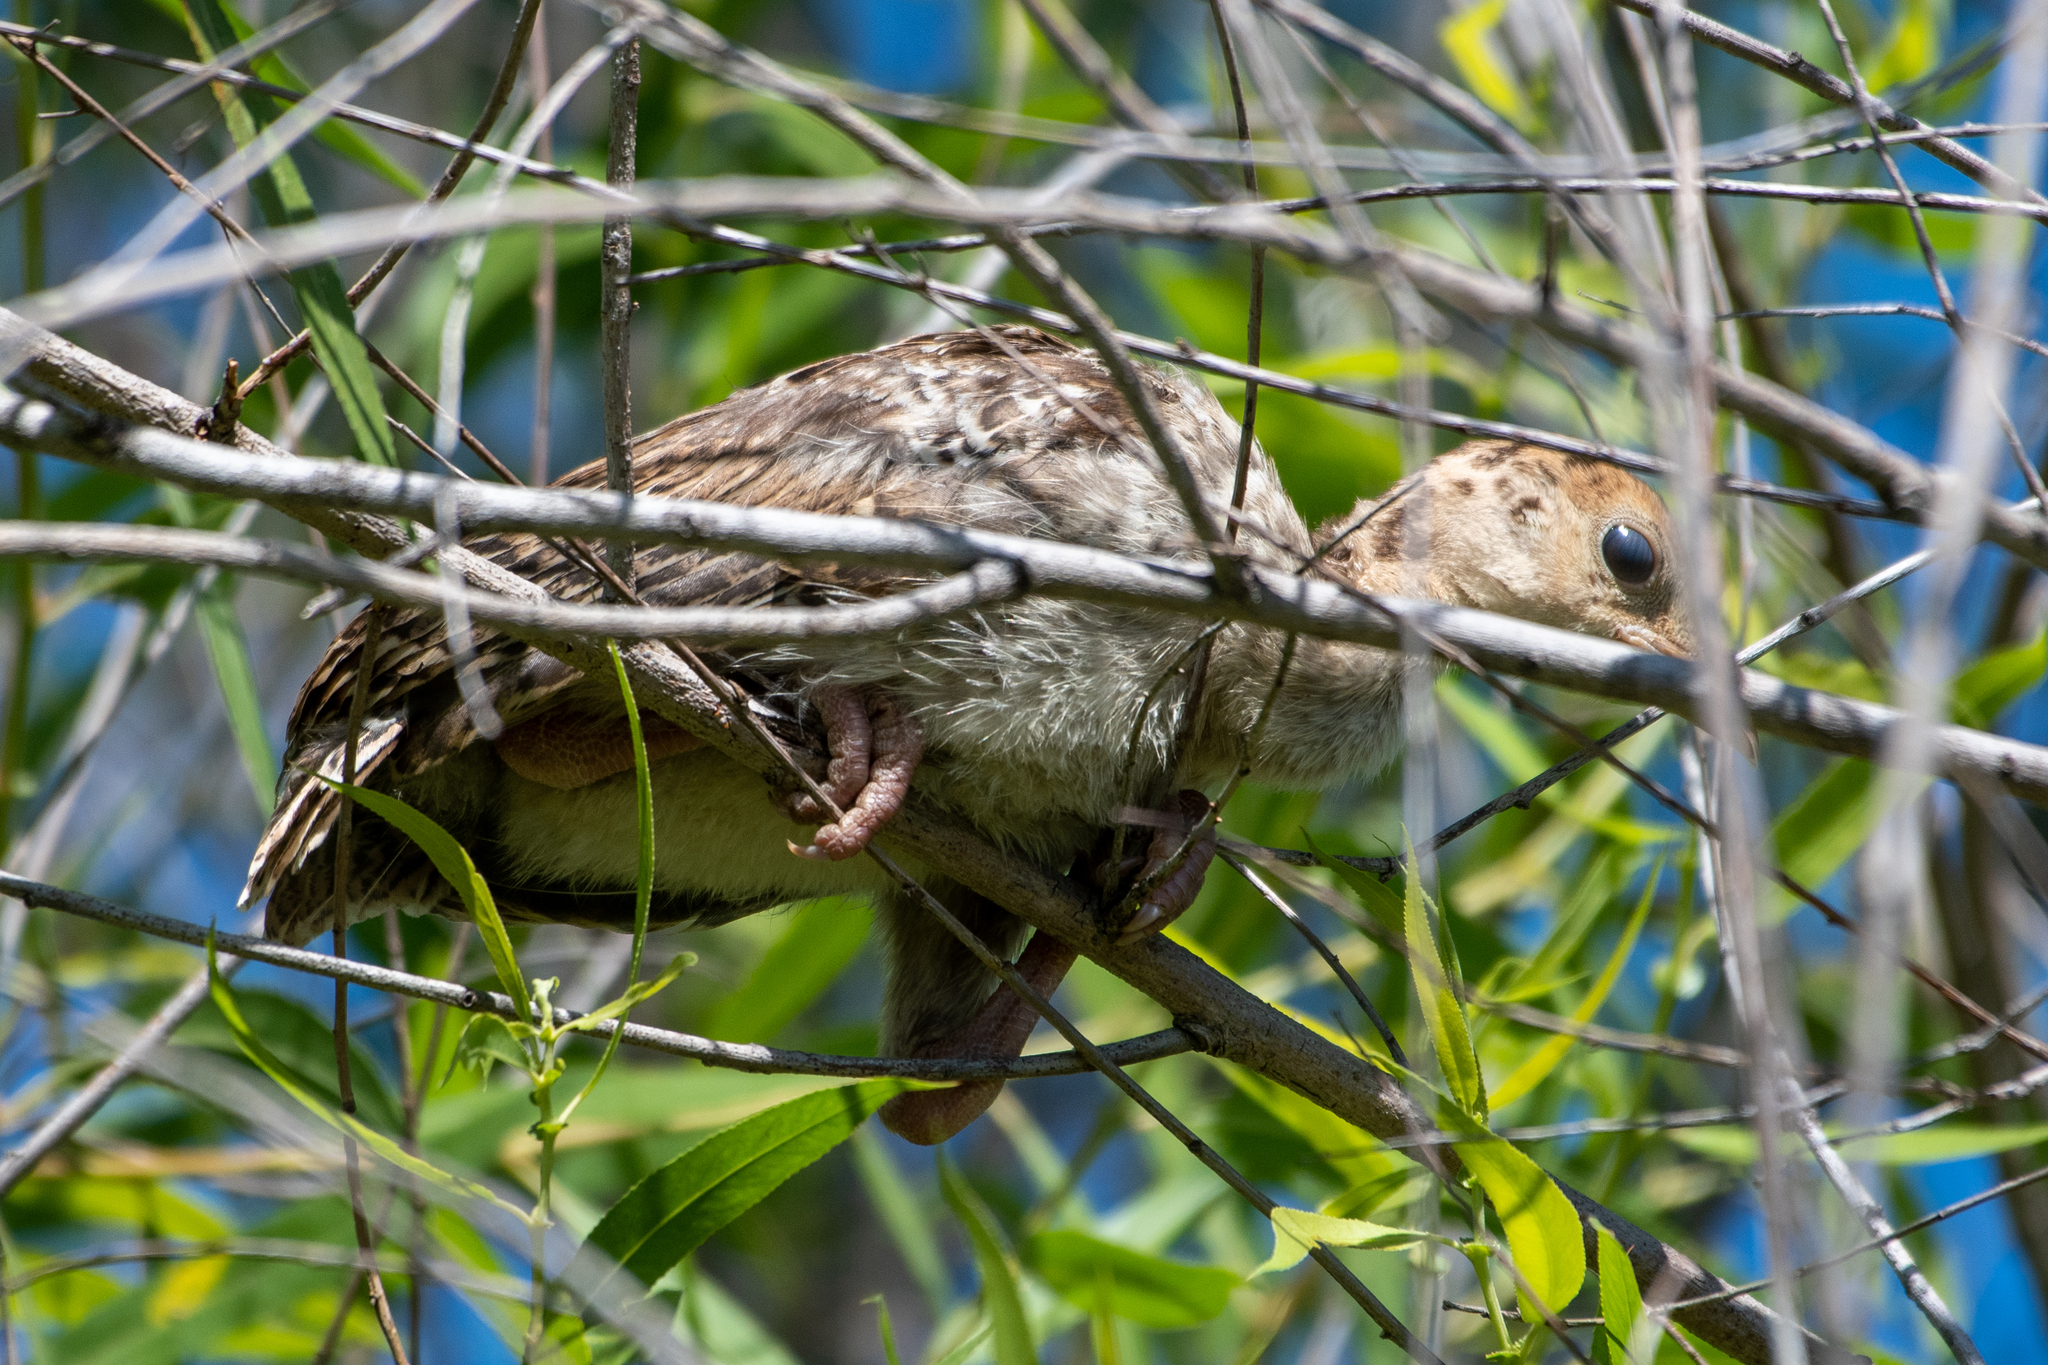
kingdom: Animalia
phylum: Chordata
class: Aves
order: Galliformes
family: Phasianidae
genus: Meleagris
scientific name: Meleagris gallopavo
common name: Wild turkey
